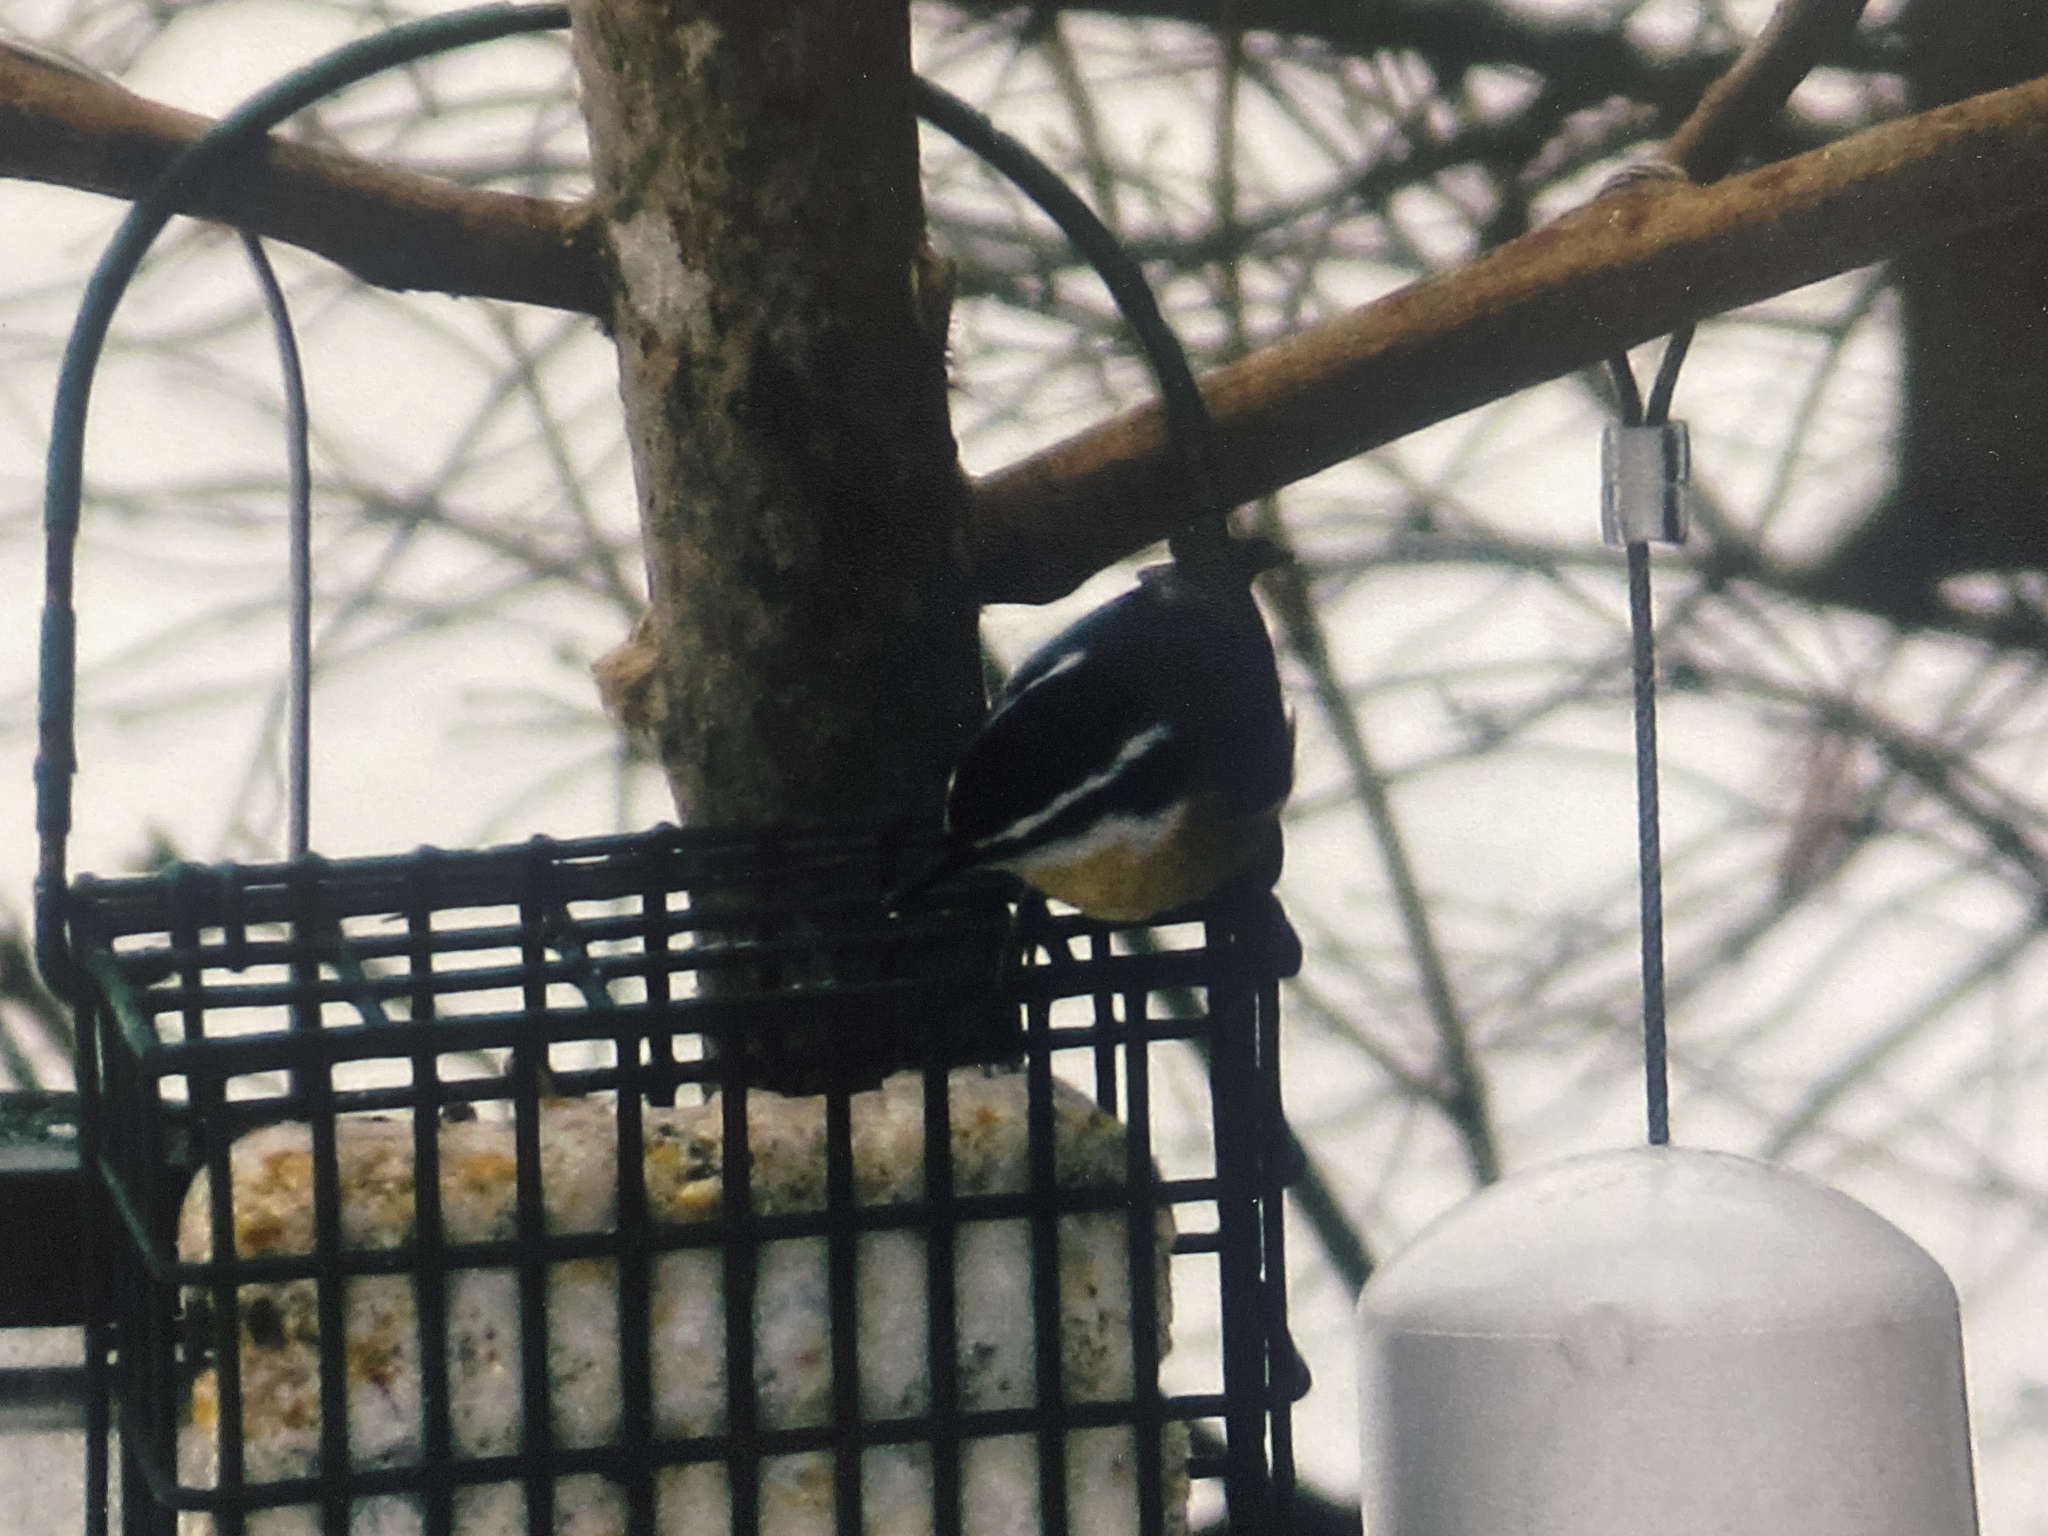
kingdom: Animalia
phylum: Chordata
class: Aves
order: Passeriformes
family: Sittidae
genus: Sitta
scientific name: Sitta canadensis
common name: Red-breasted nuthatch
